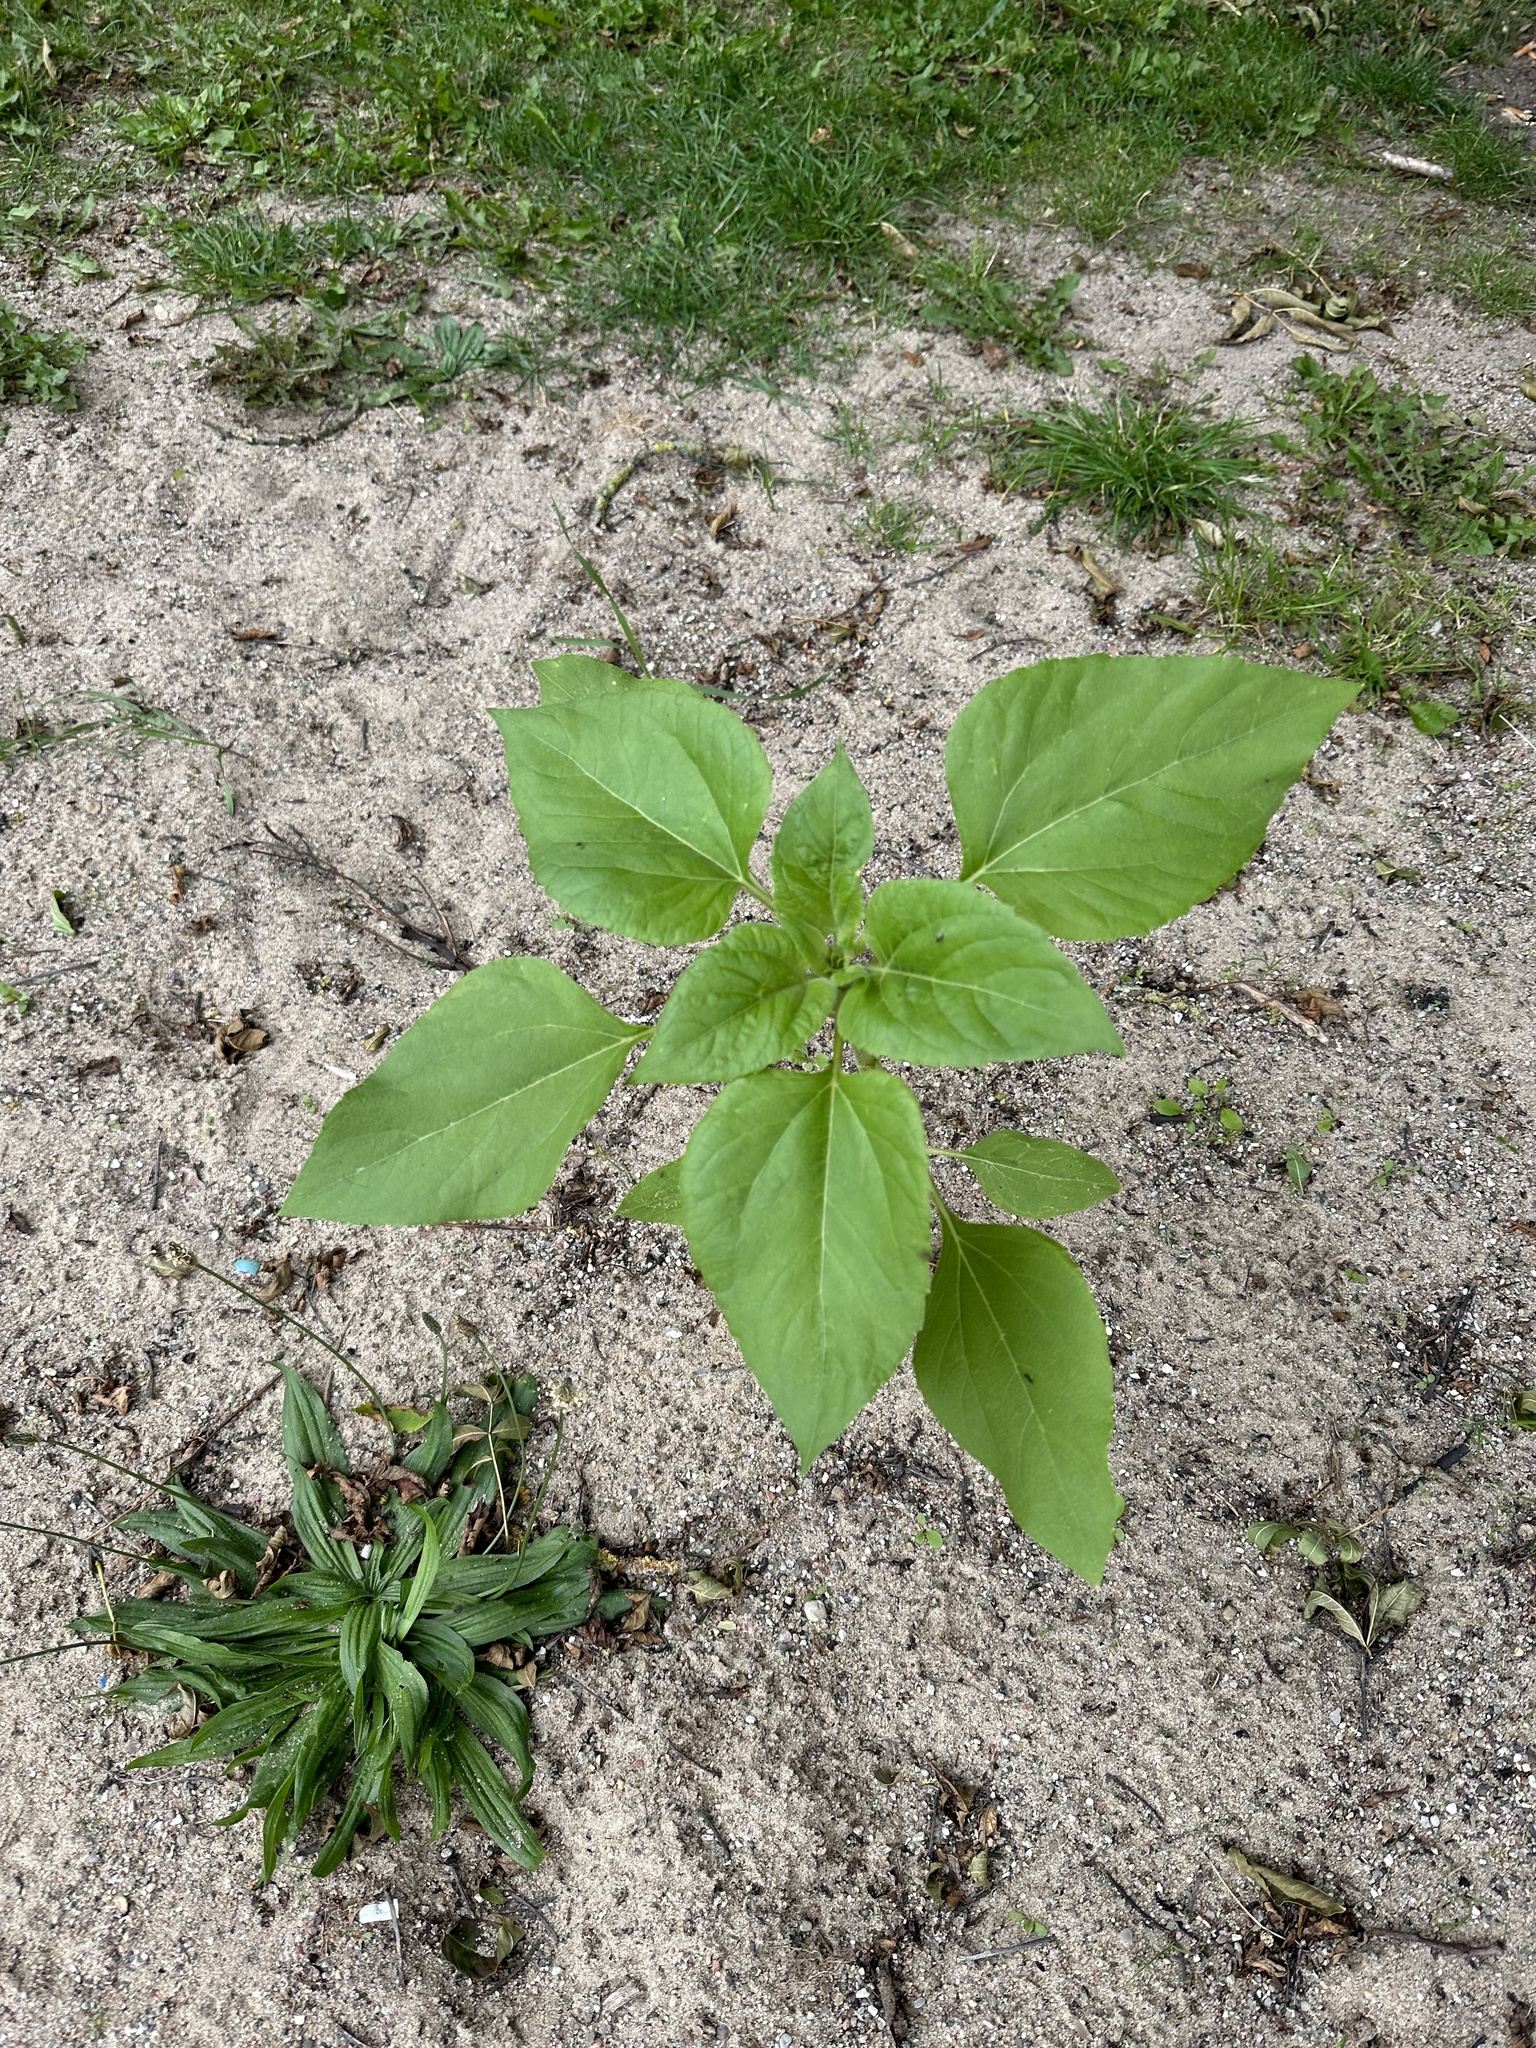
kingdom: Plantae
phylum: Tracheophyta
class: Magnoliopsida
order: Asterales
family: Asteraceae
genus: Helianthus
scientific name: Helianthus annuus
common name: Sunflower
